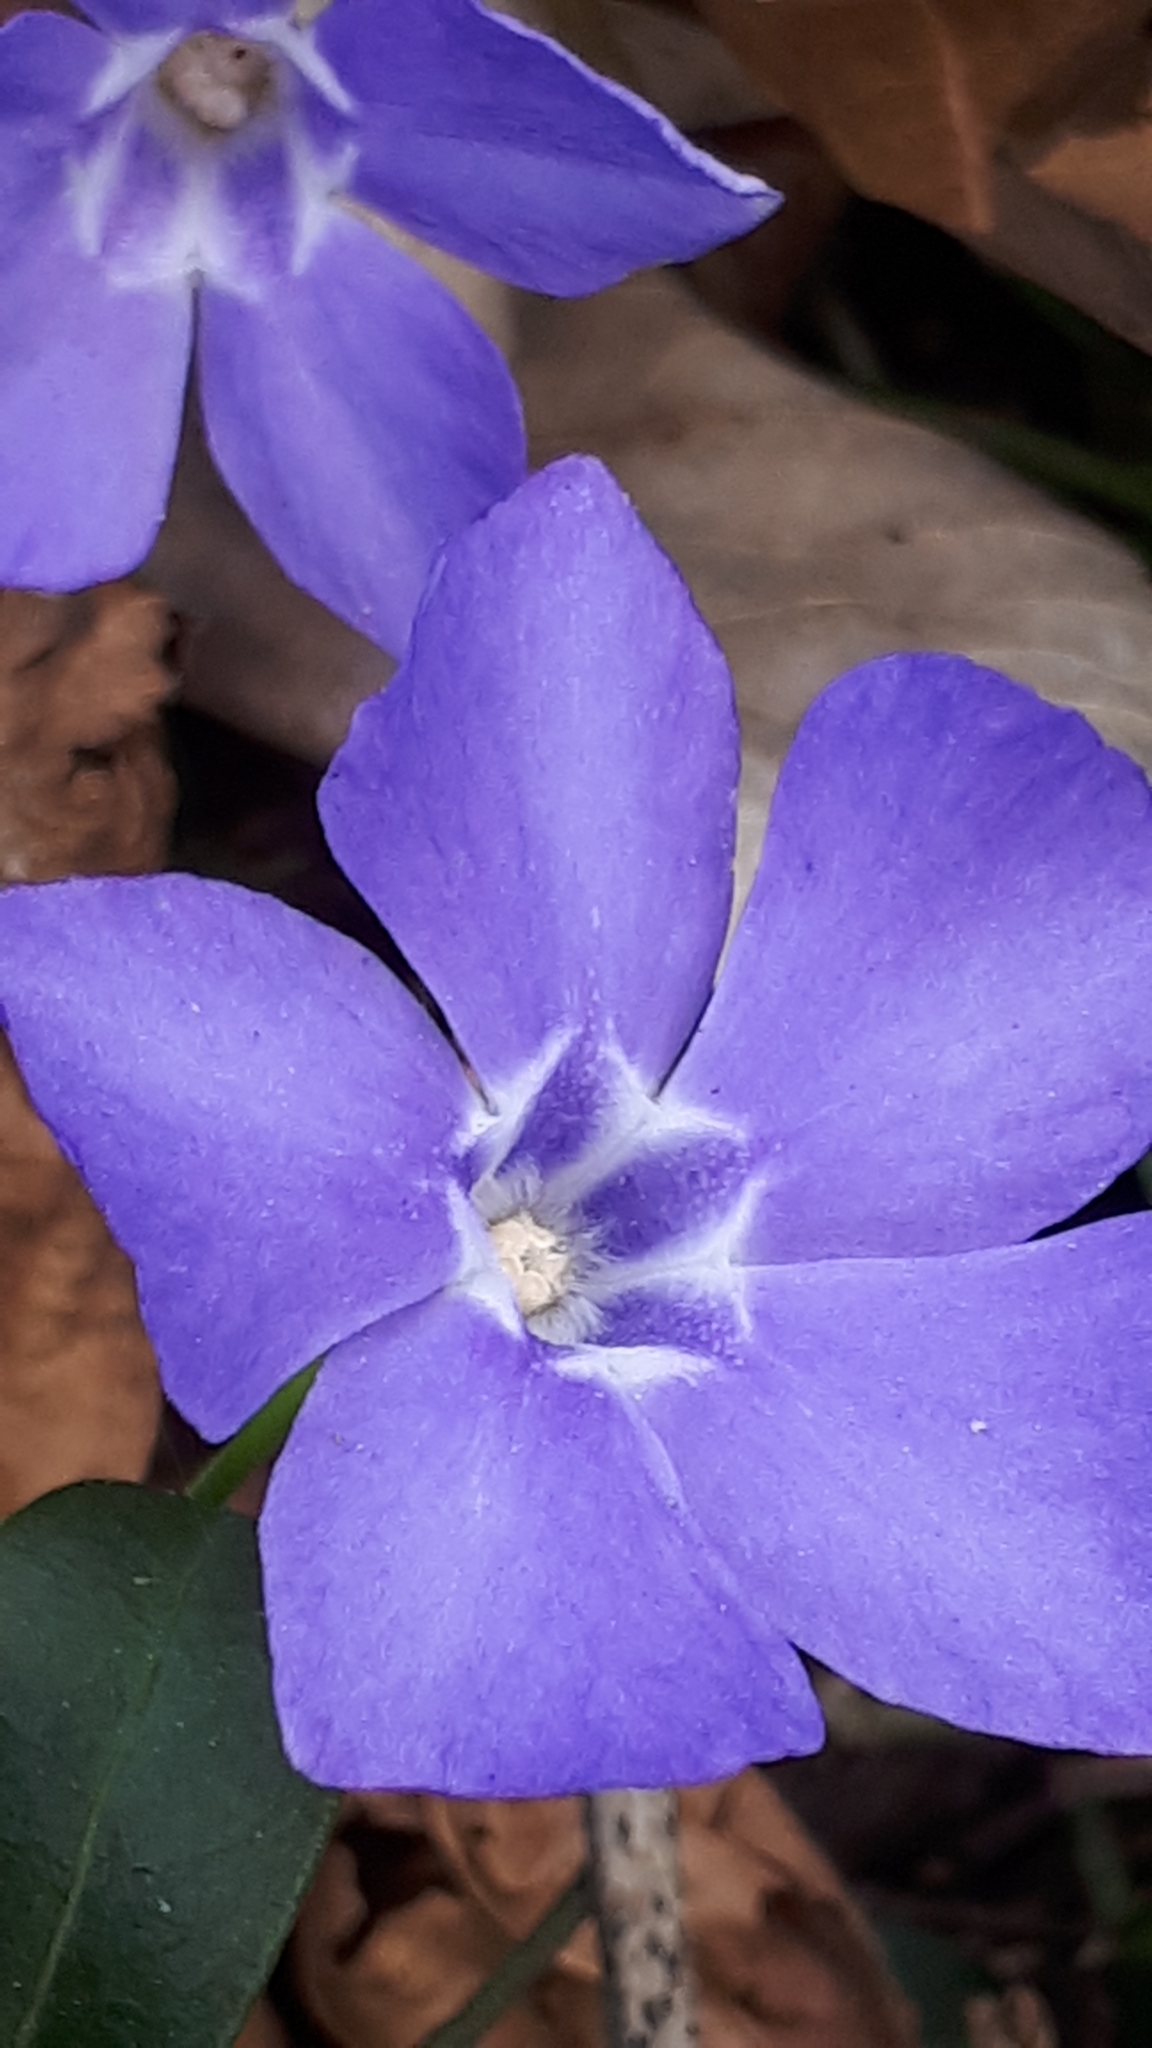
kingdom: Plantae
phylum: Tracheophyta
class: Magnoliopsida
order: Gentianales
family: Apocynaceae
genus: Vinca
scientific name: Vinca minor
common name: Lesser periwinkle
